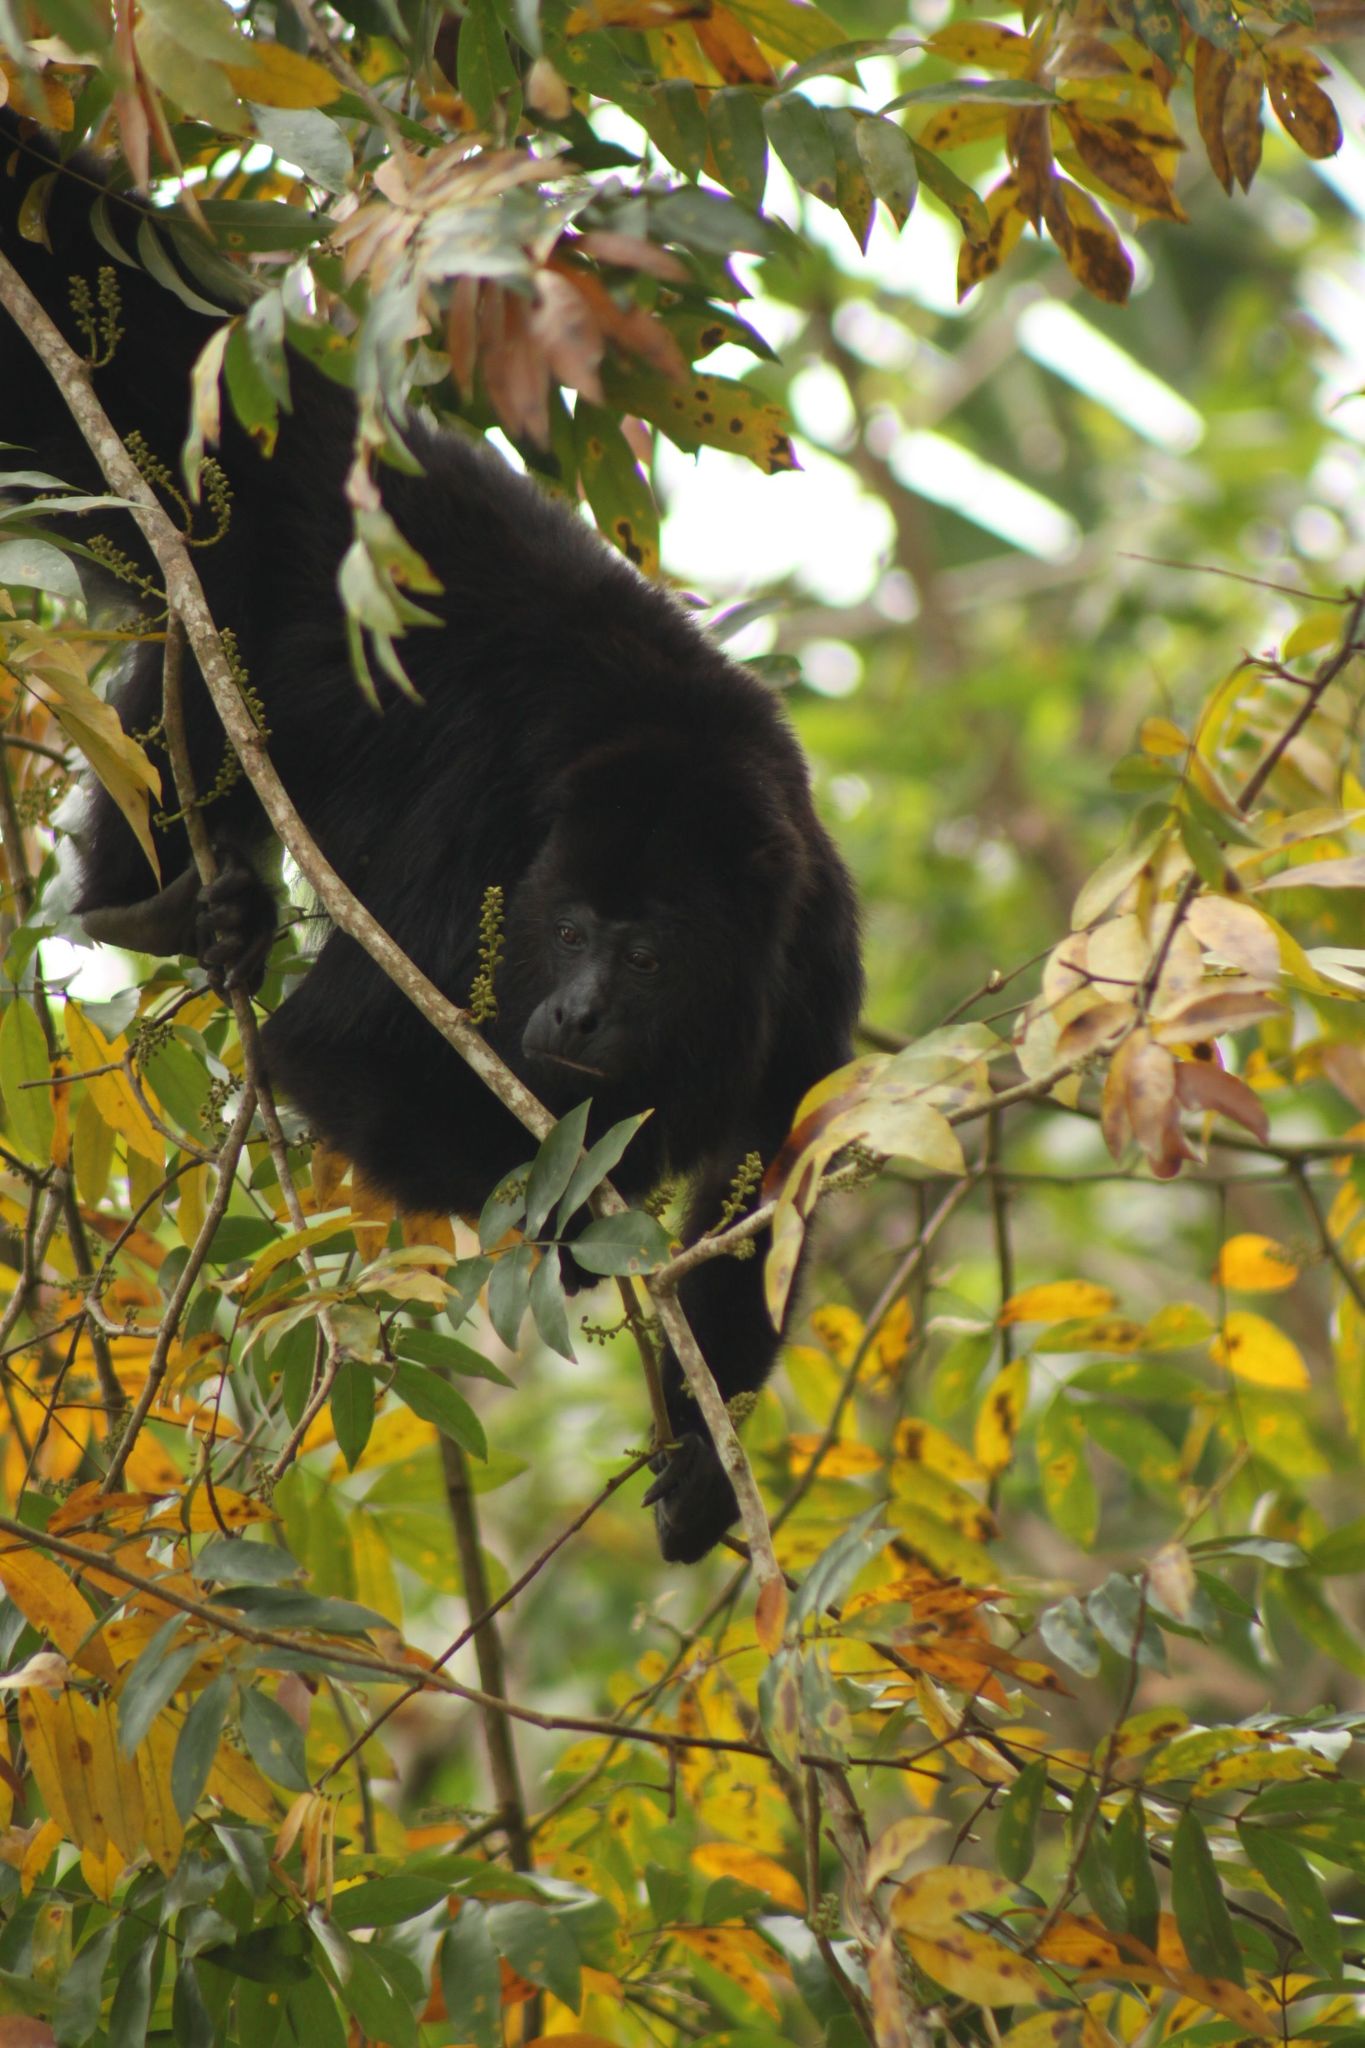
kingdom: Animalia
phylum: Chordata
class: Mammalia
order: Primates
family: Atelidae
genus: Alouatta
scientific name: Alouatta pigra
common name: Guatemalan black howler
